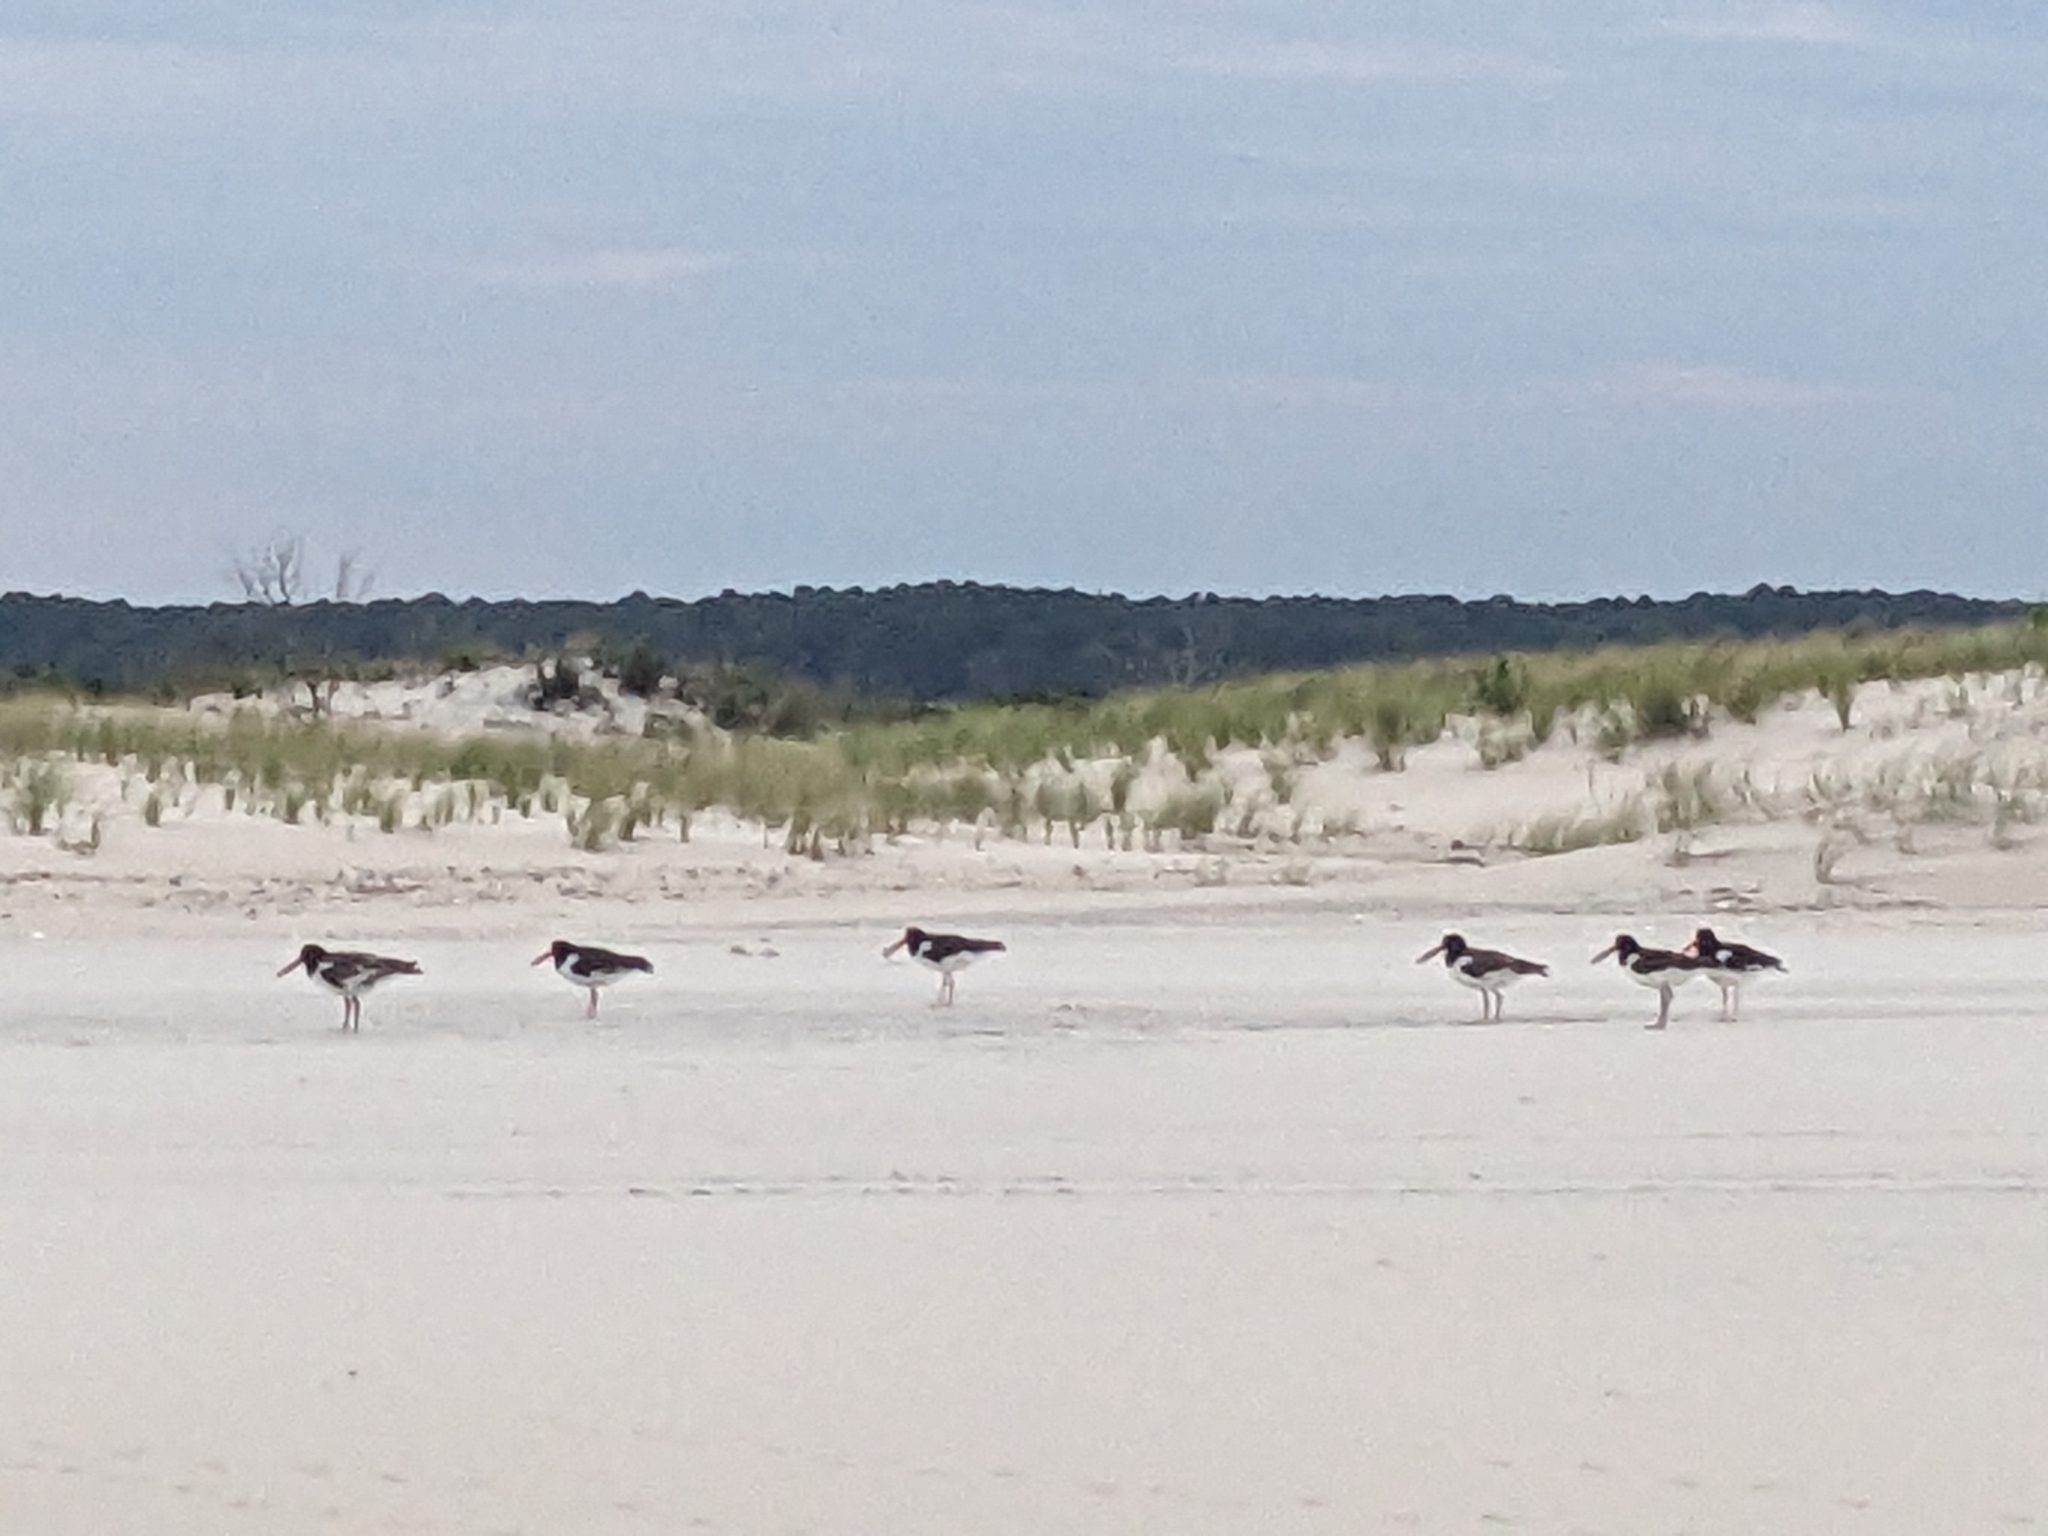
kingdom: Animalia
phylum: Chordata
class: Aves
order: Charadriiformes
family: Haematopodidae
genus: Haematopus
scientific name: Haematopus palliatus
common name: American oystercatcher
